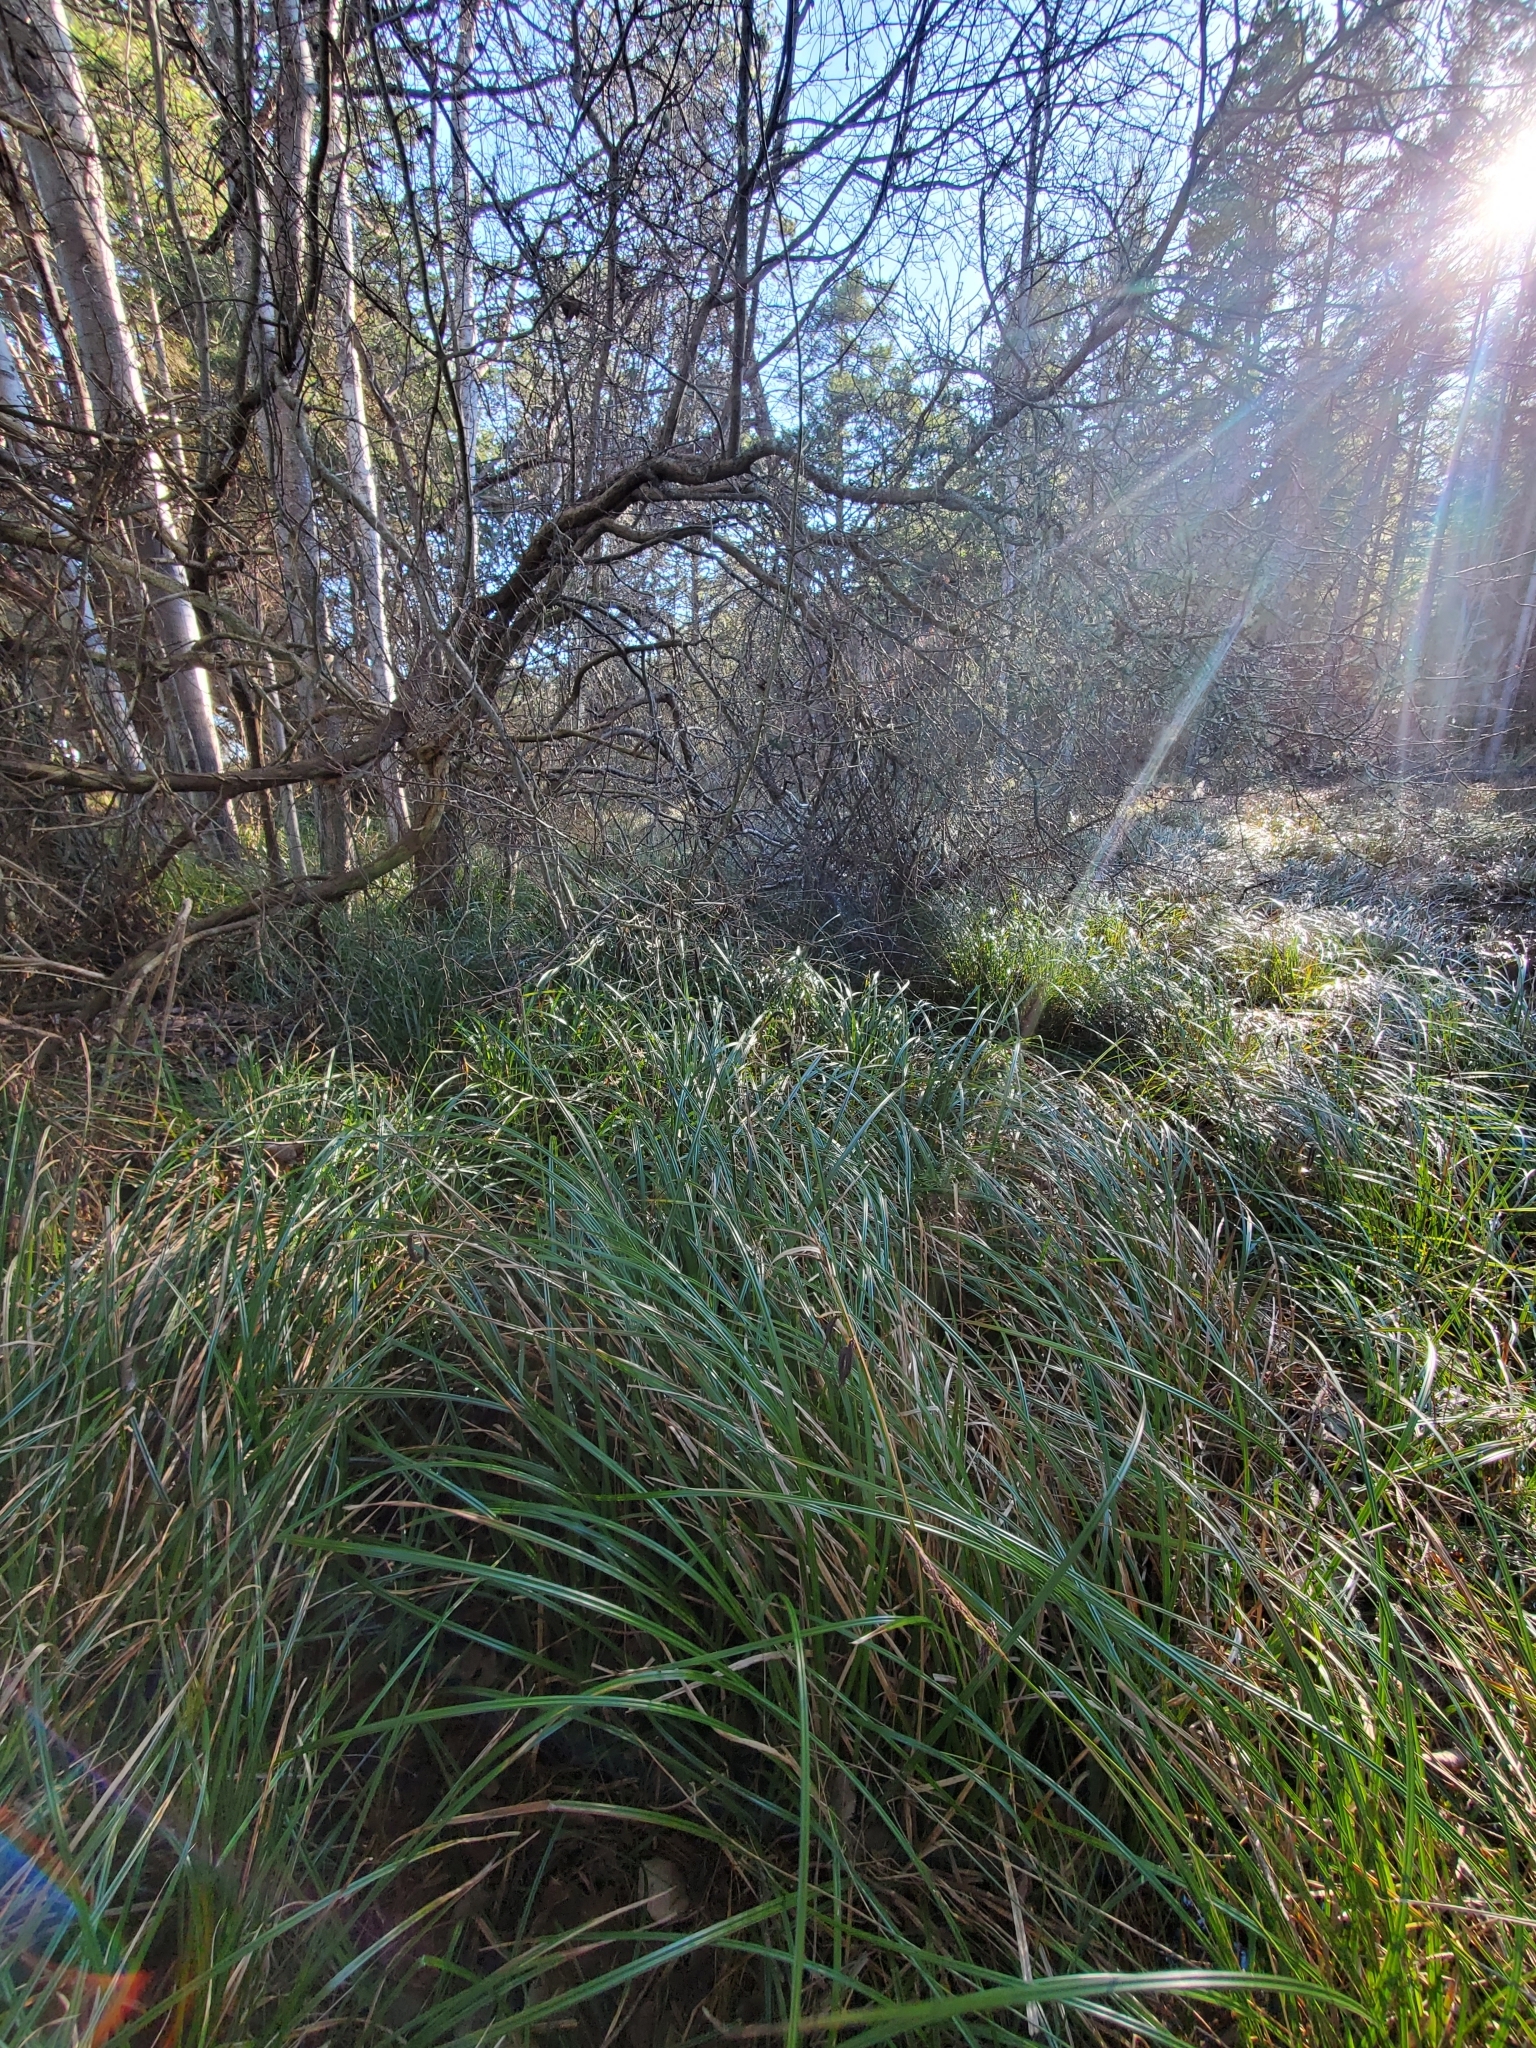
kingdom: Plantae
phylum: Tracheophyta
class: Liliopsida
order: Poales
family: Cyperaceae
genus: Carex
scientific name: Carex obnupta
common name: Slough sedge
